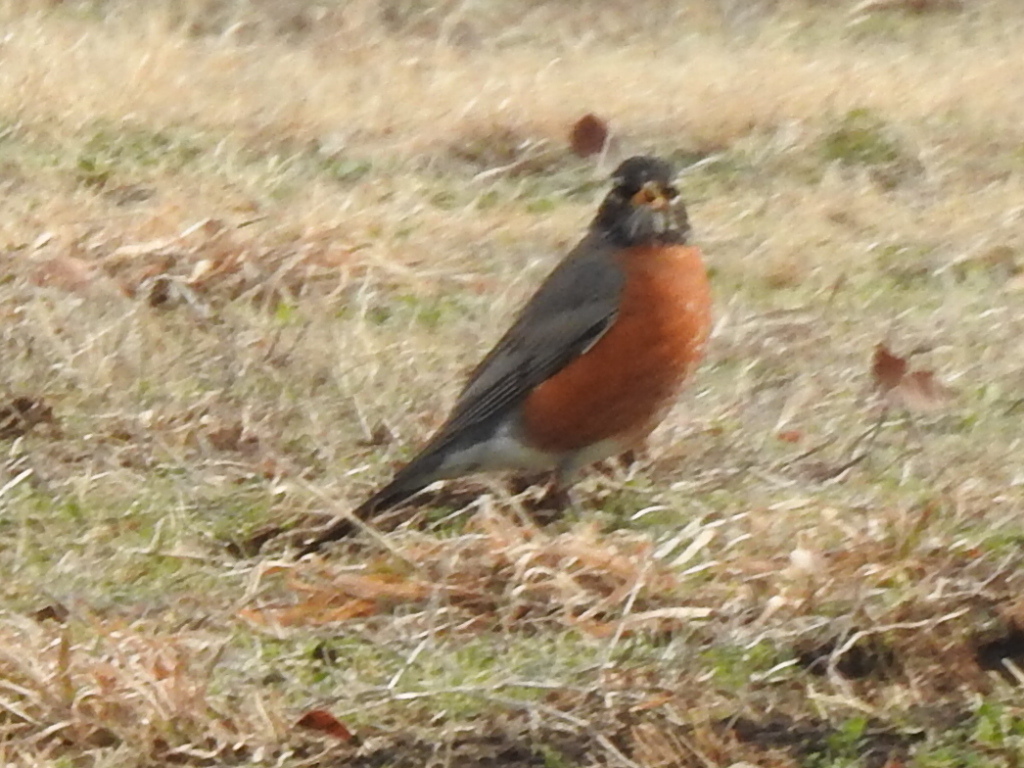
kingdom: Animalia
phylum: Chordata
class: Aves
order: Passeriformes
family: Turdidae
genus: Turdus
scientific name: Turdus migratorius
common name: American robin
